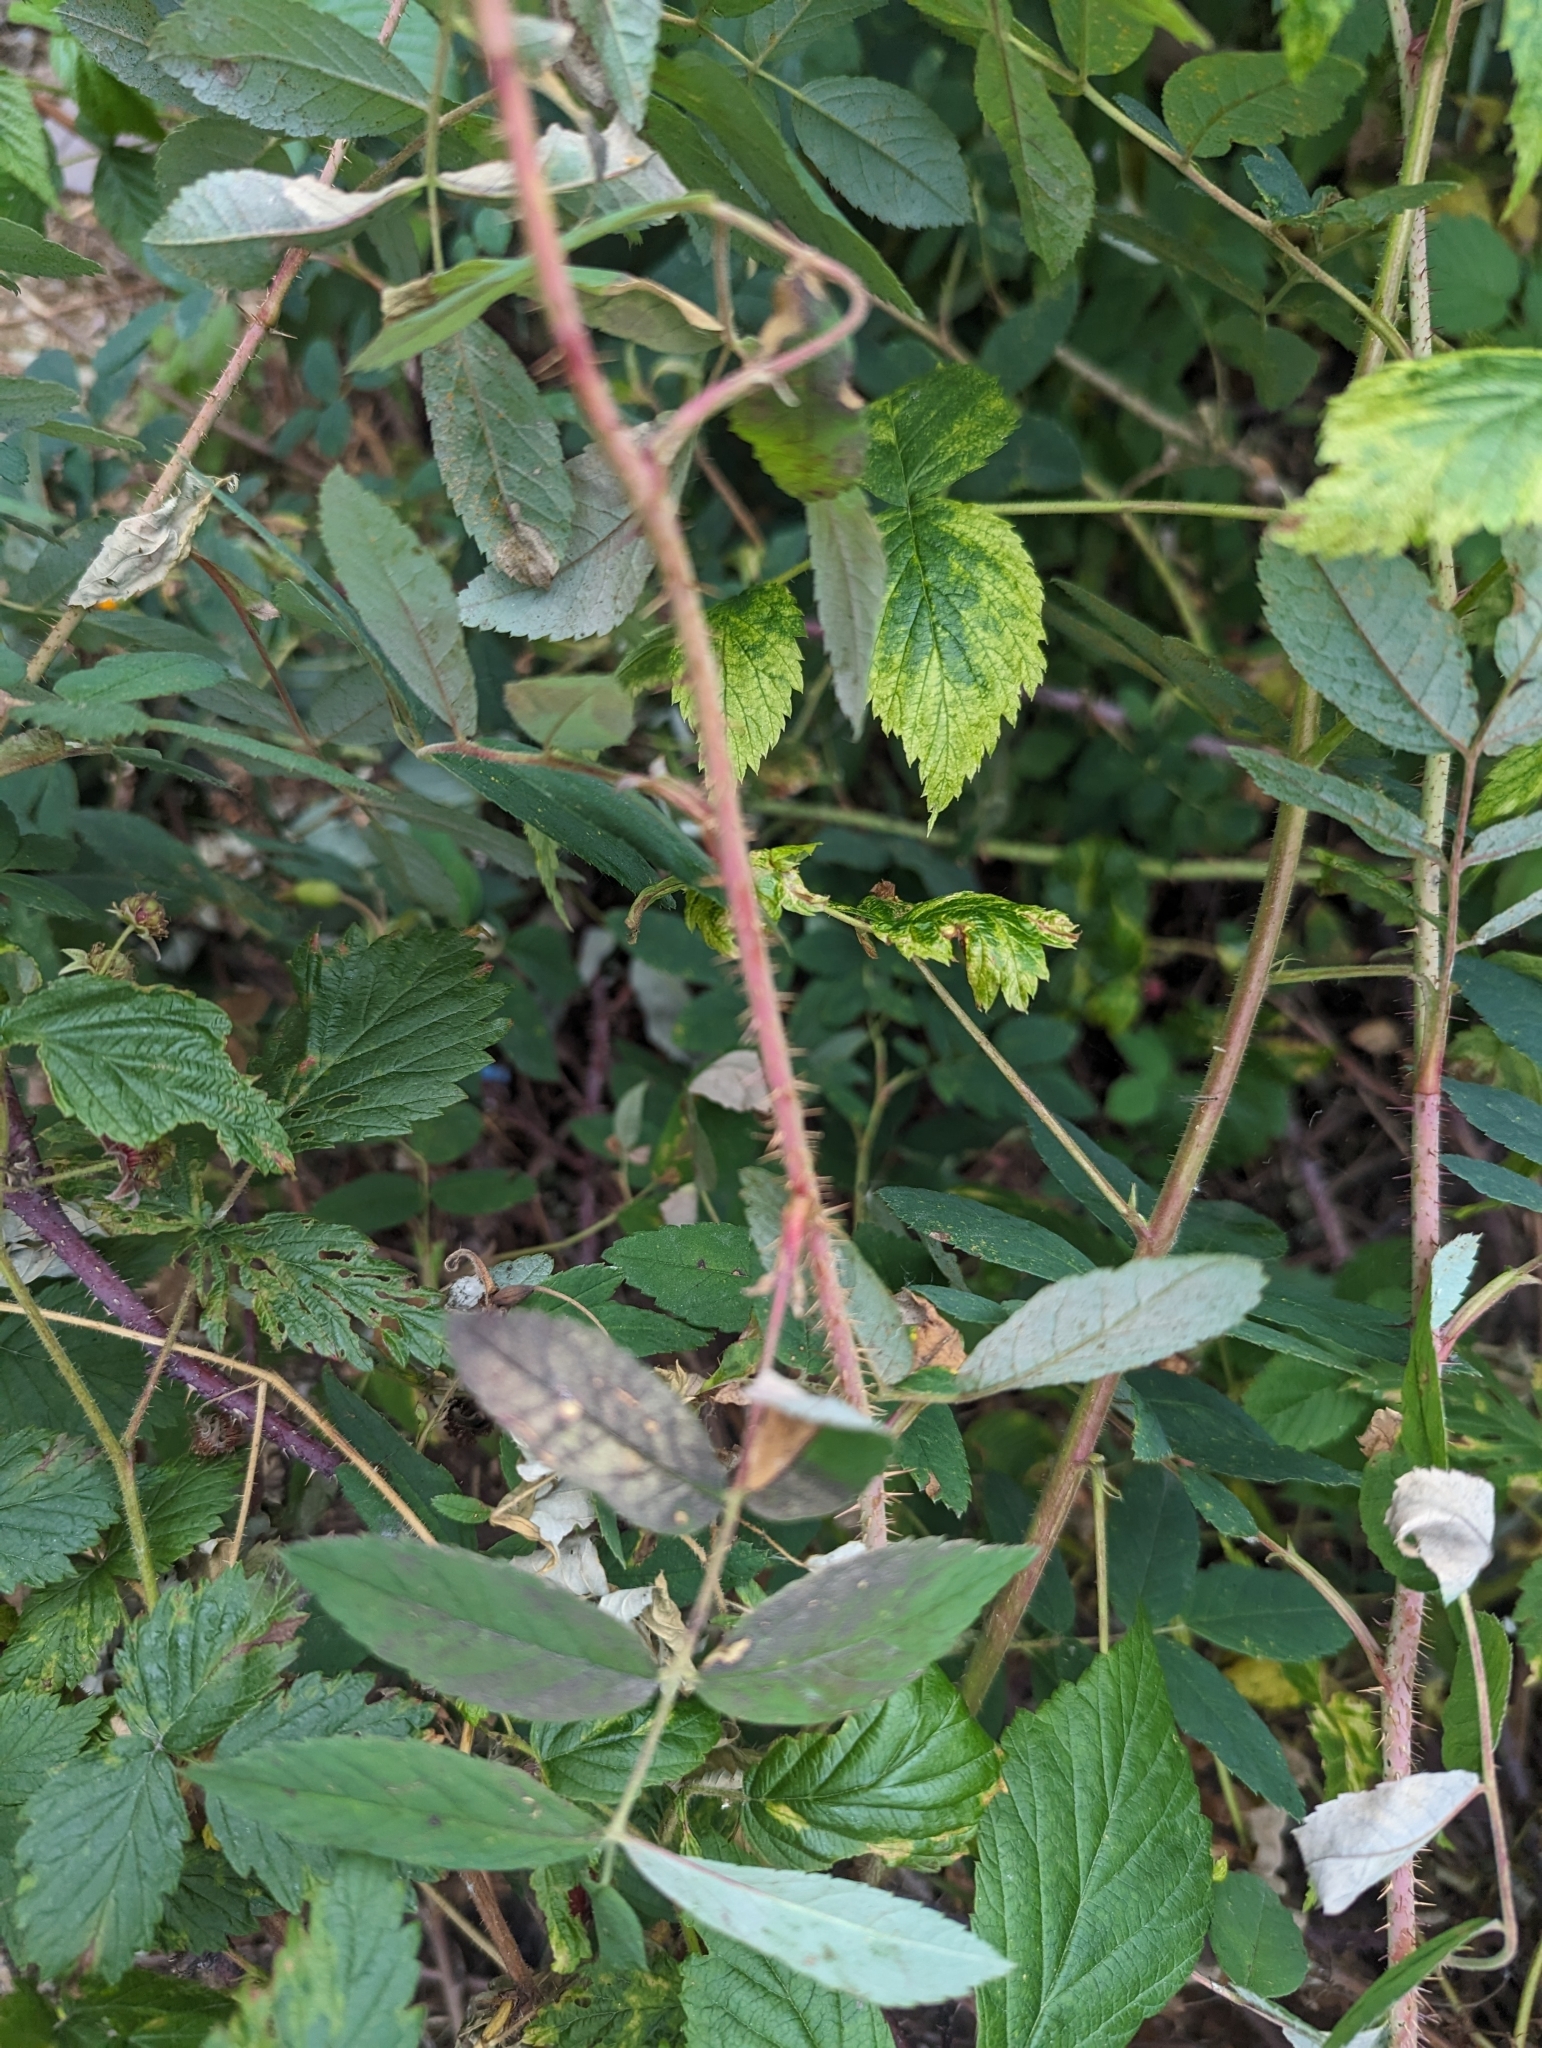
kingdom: Plantae
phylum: Tracheophyta
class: Magnoliopsida
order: Rosales
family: Rosaceae
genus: Rubus
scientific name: Rubus idaeus
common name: Raspberry
